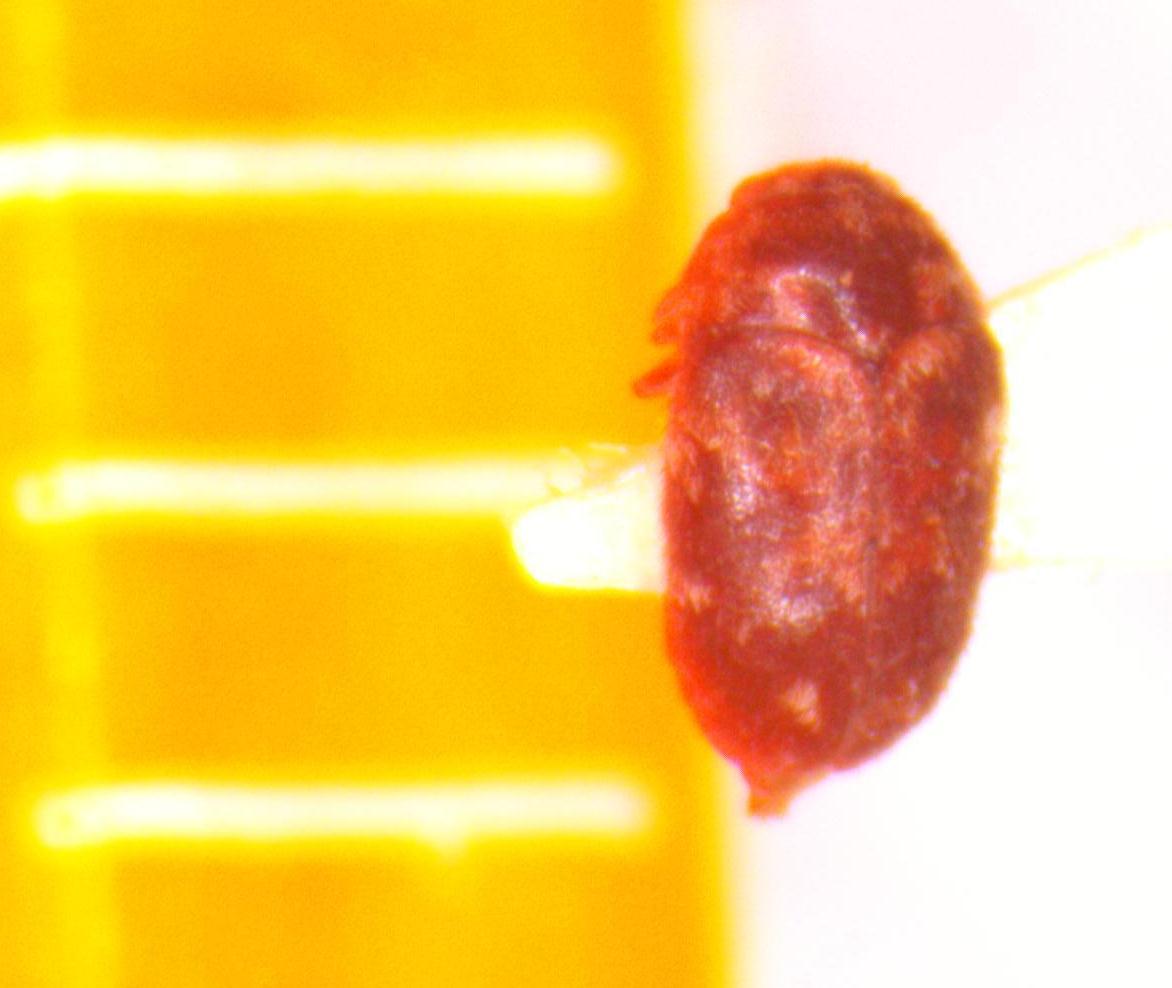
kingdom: Animalia
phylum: Arthropoda
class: Insecta
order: Coleoptera
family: Dermestidae
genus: Trogoderma
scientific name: Trogoderma
